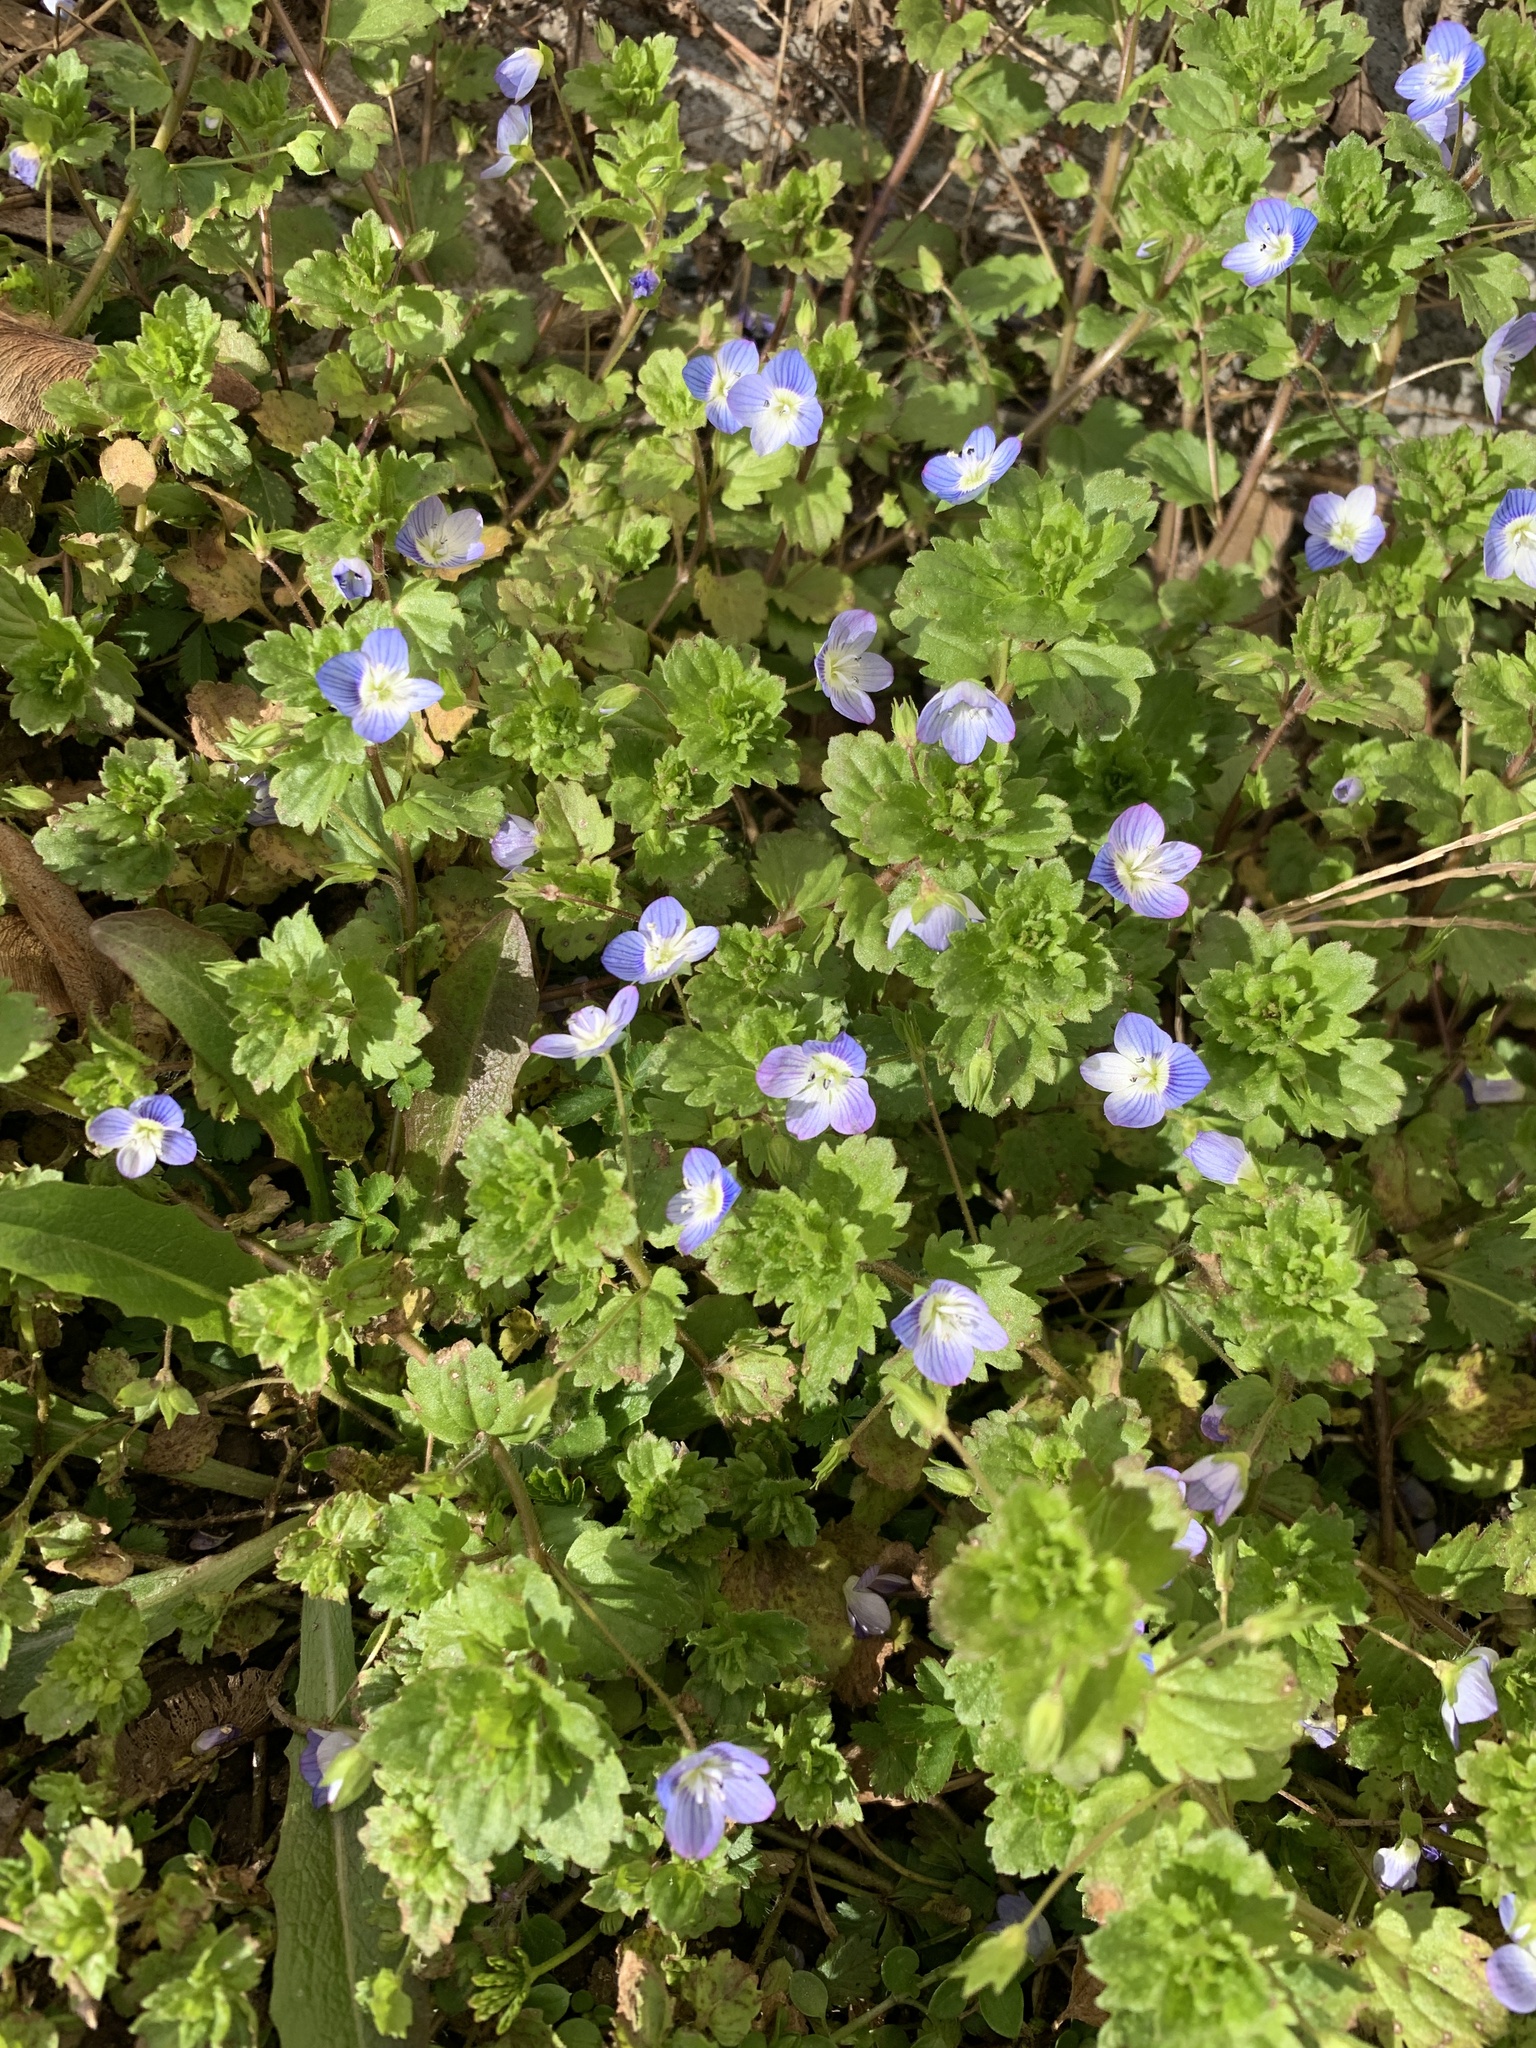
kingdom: Plantae
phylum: Tracheophyta
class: Magnoliopsida
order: Lamiales
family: Plantaginaceae
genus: Veronica
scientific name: Veronica persica
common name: Common field-speedwell
